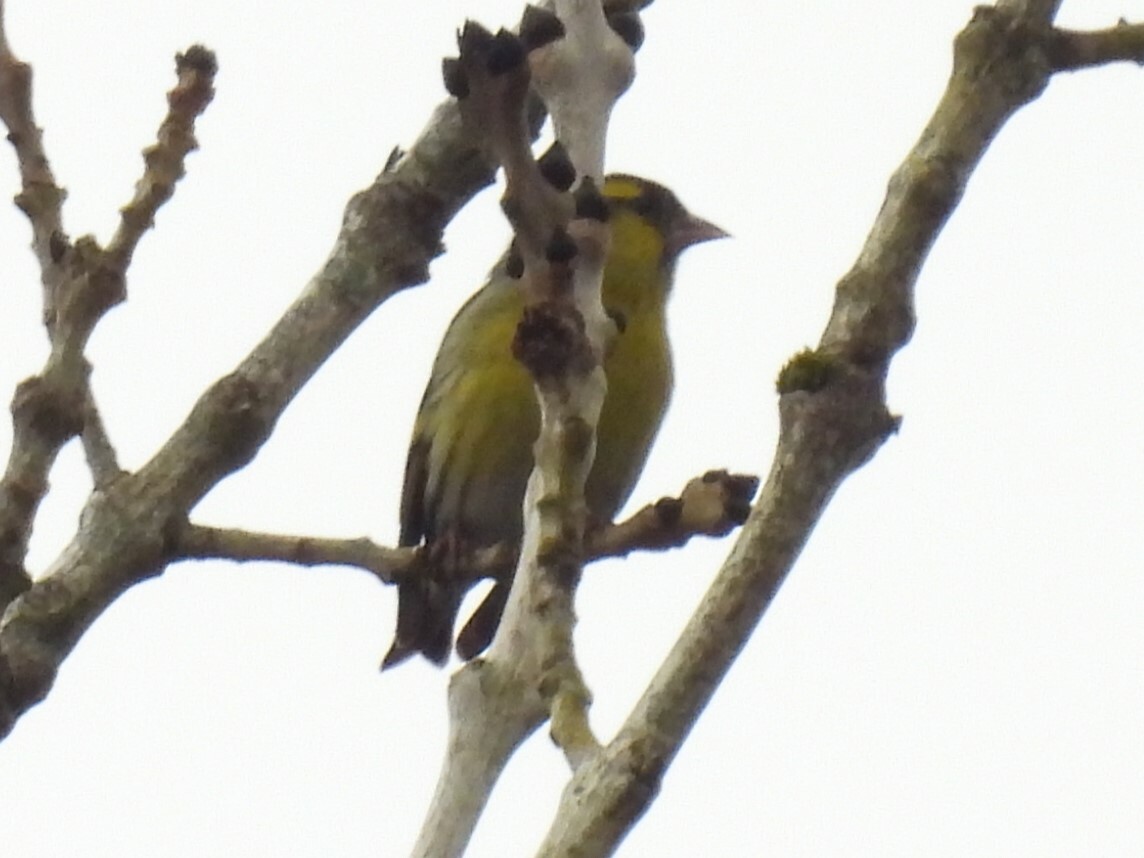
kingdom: Animalia
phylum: Chordata
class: Aves
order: Passeriformes
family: Fringillidae
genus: Spinus
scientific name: Spinus spinus
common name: Eurasian siskin
